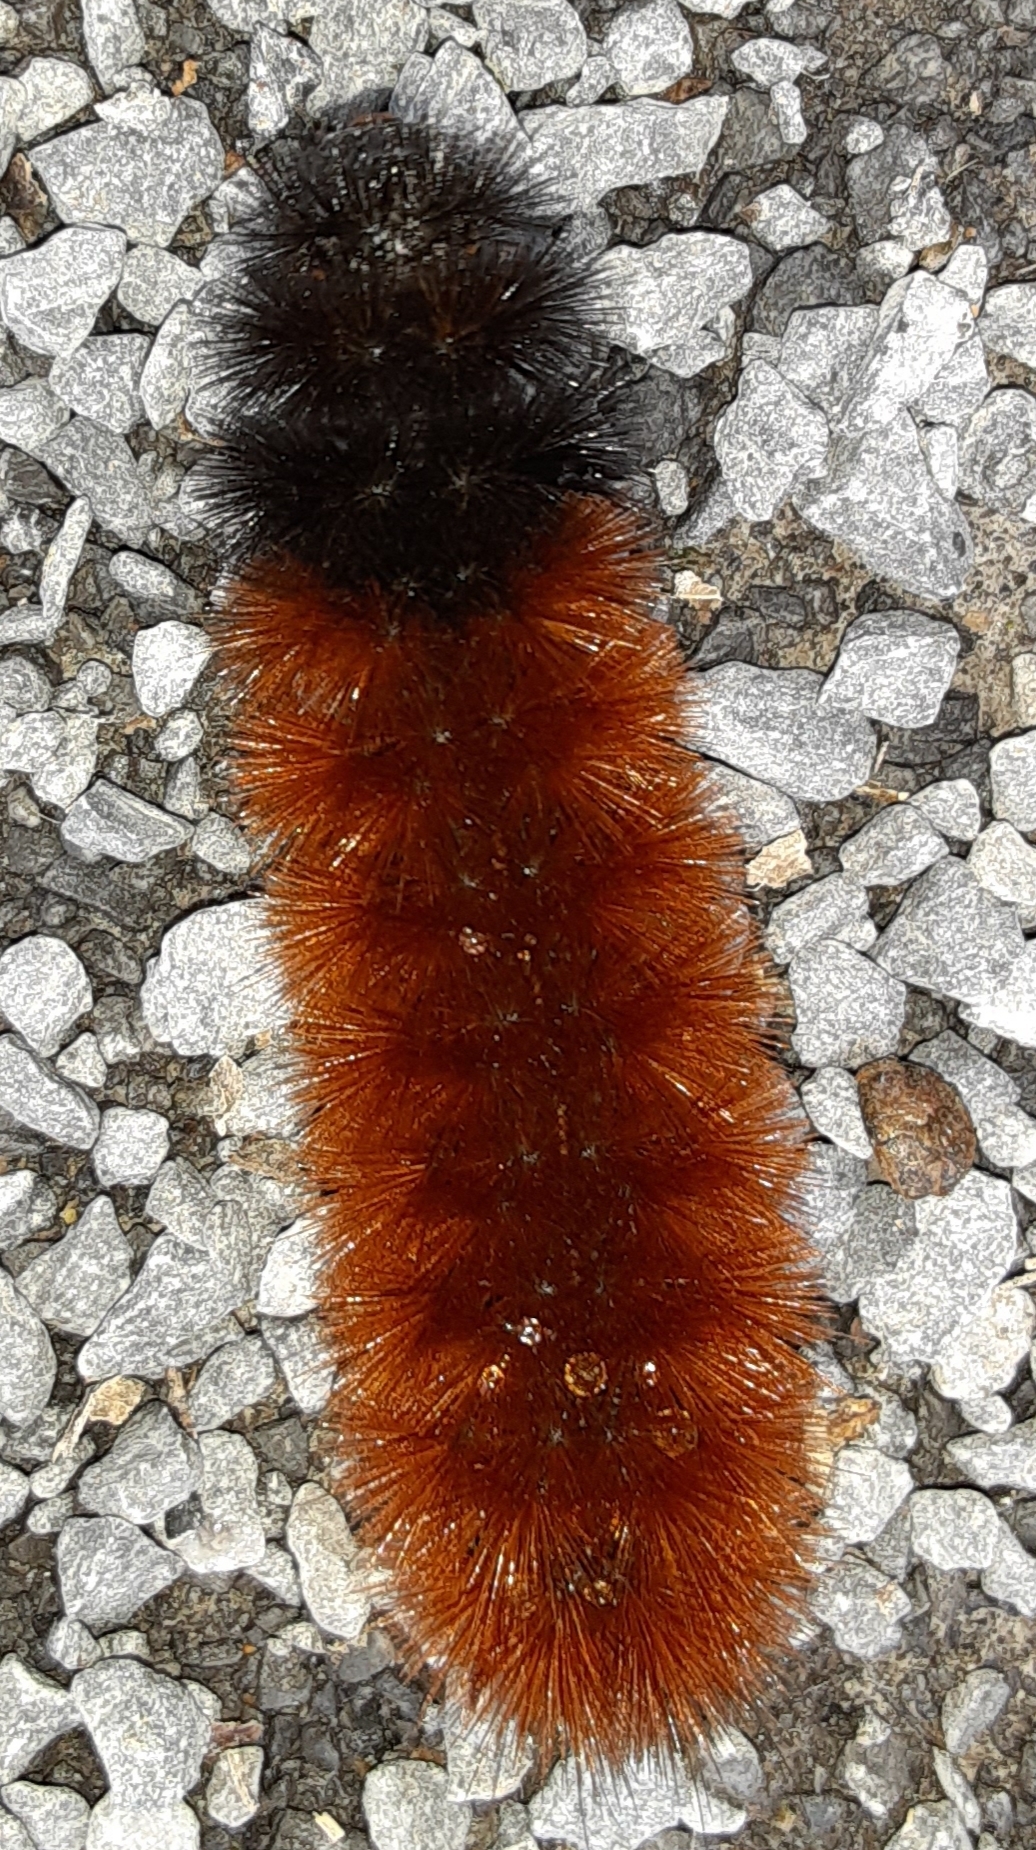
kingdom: Animalia
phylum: Arthropoda
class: Insecta
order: Lepidoptera
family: Erebidae
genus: Pyrrharctia
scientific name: Pyrrharctia isabella
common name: Isabella tiger moth
